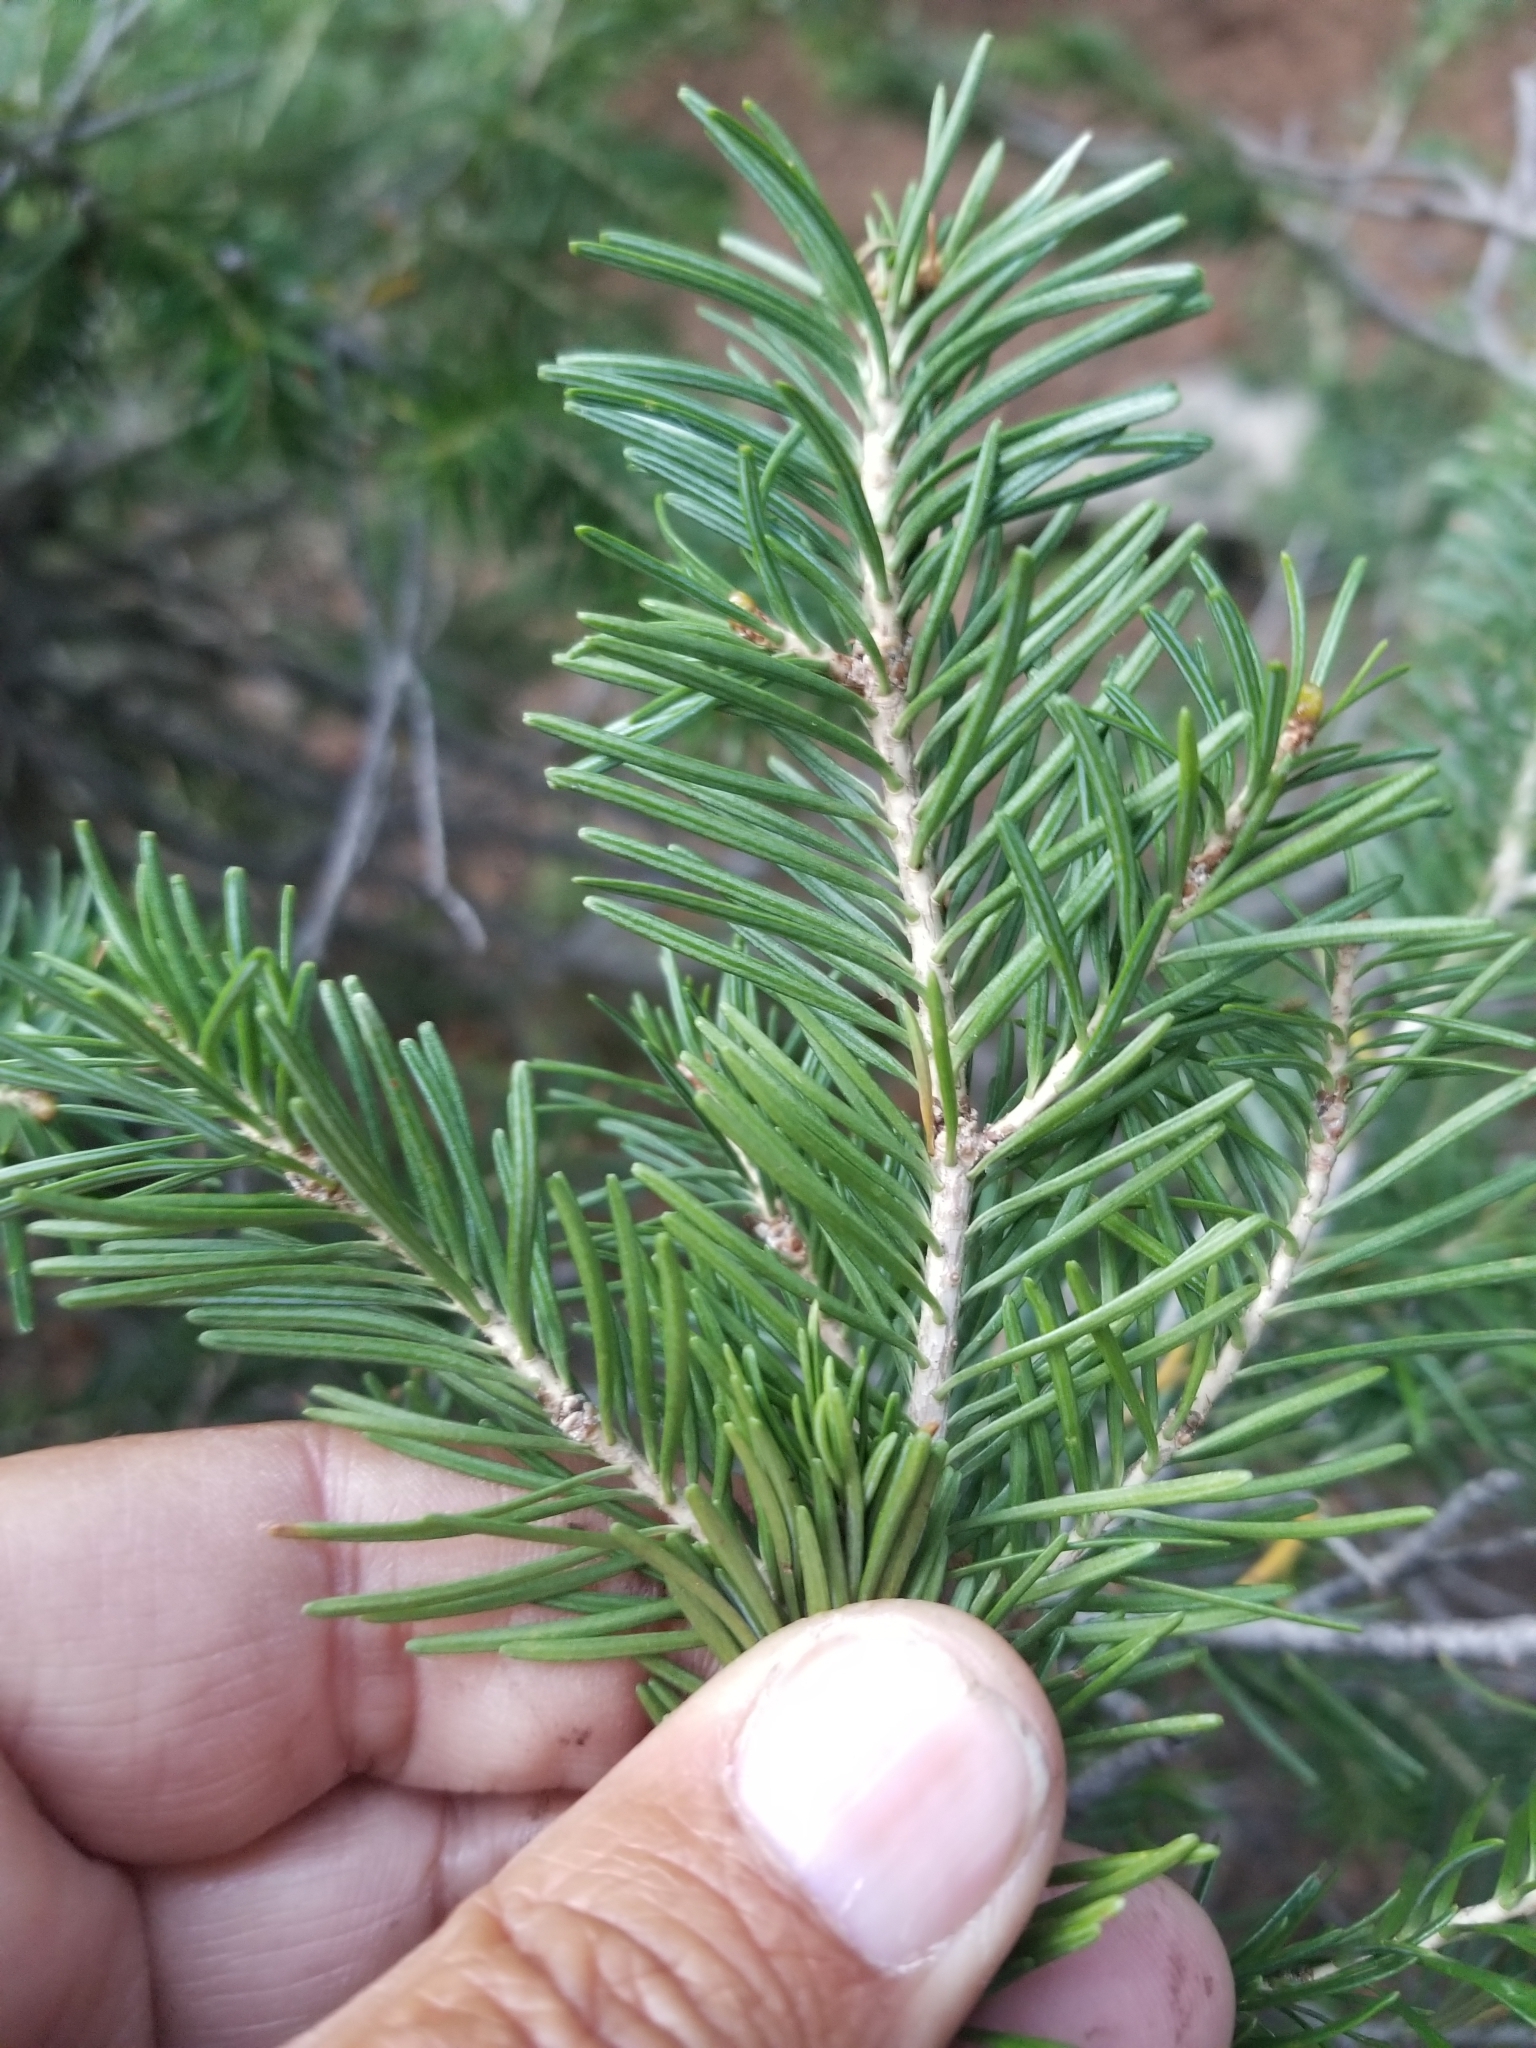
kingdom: Plantae
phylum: Tracheophyta
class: Pinopsida
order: Pinales
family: Pinaceae
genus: Abies
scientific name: Abies lasiocarpa
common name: Subalpine fir
